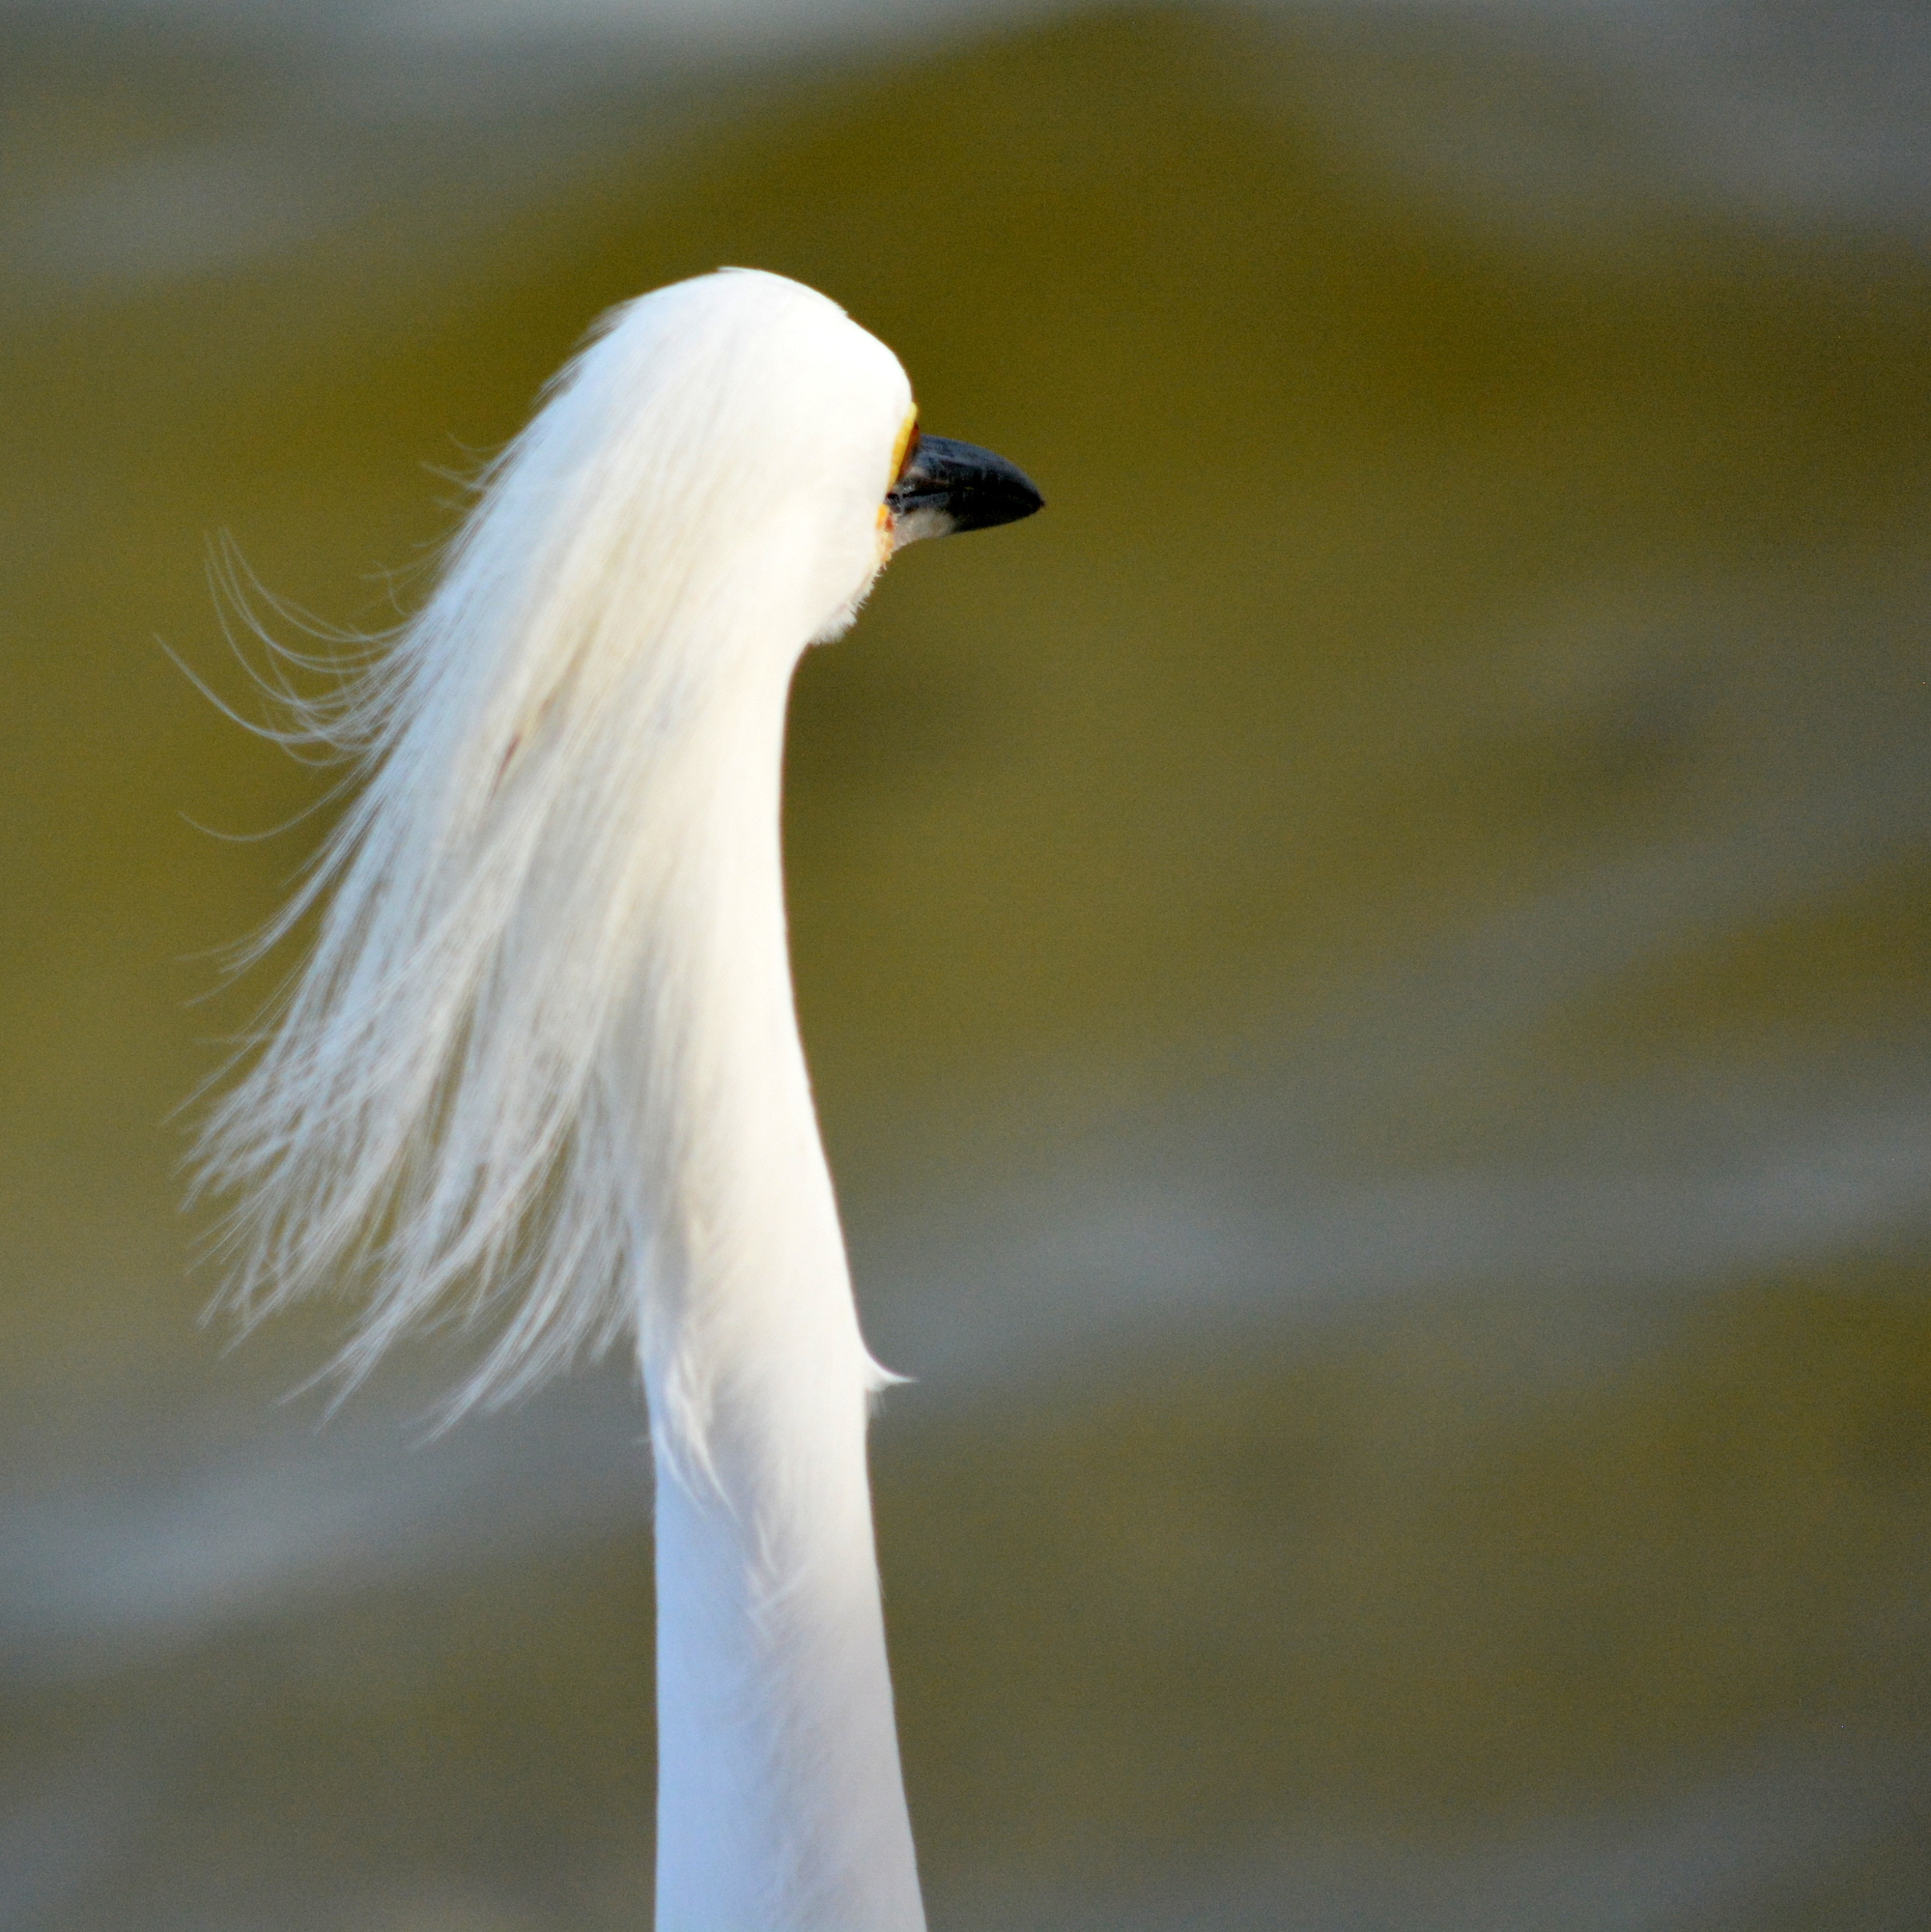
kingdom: Animalia
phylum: Chordata
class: Aves
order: Pelecaniformes
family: Ardeidae
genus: Egretta
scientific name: Egretta thula
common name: Snowy egret
